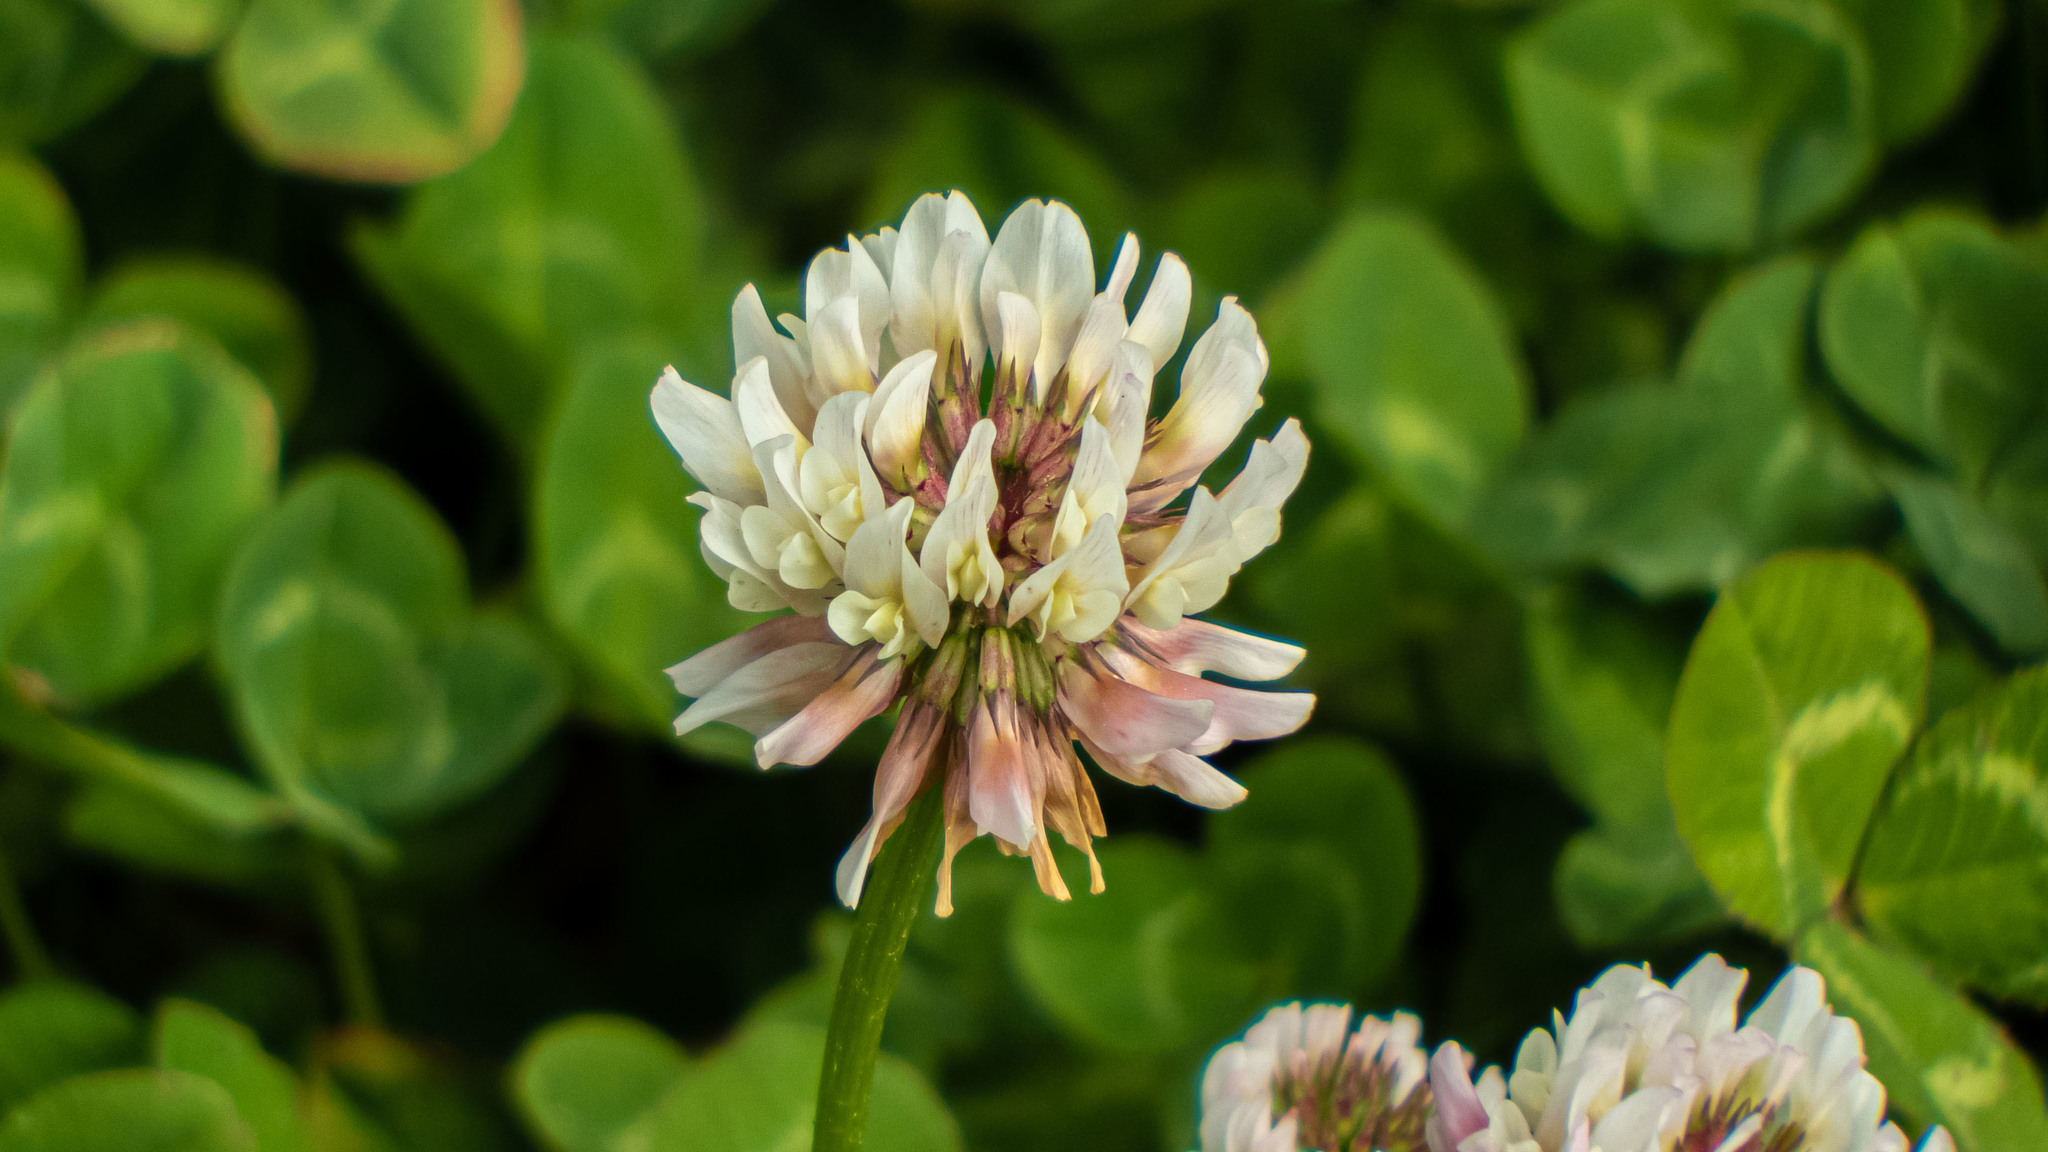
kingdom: Plantae
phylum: Tracheophyta
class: Magnoliopsida
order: Fabales
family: Fabaceae
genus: Trifolium
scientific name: Trifolium repens
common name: White clover
